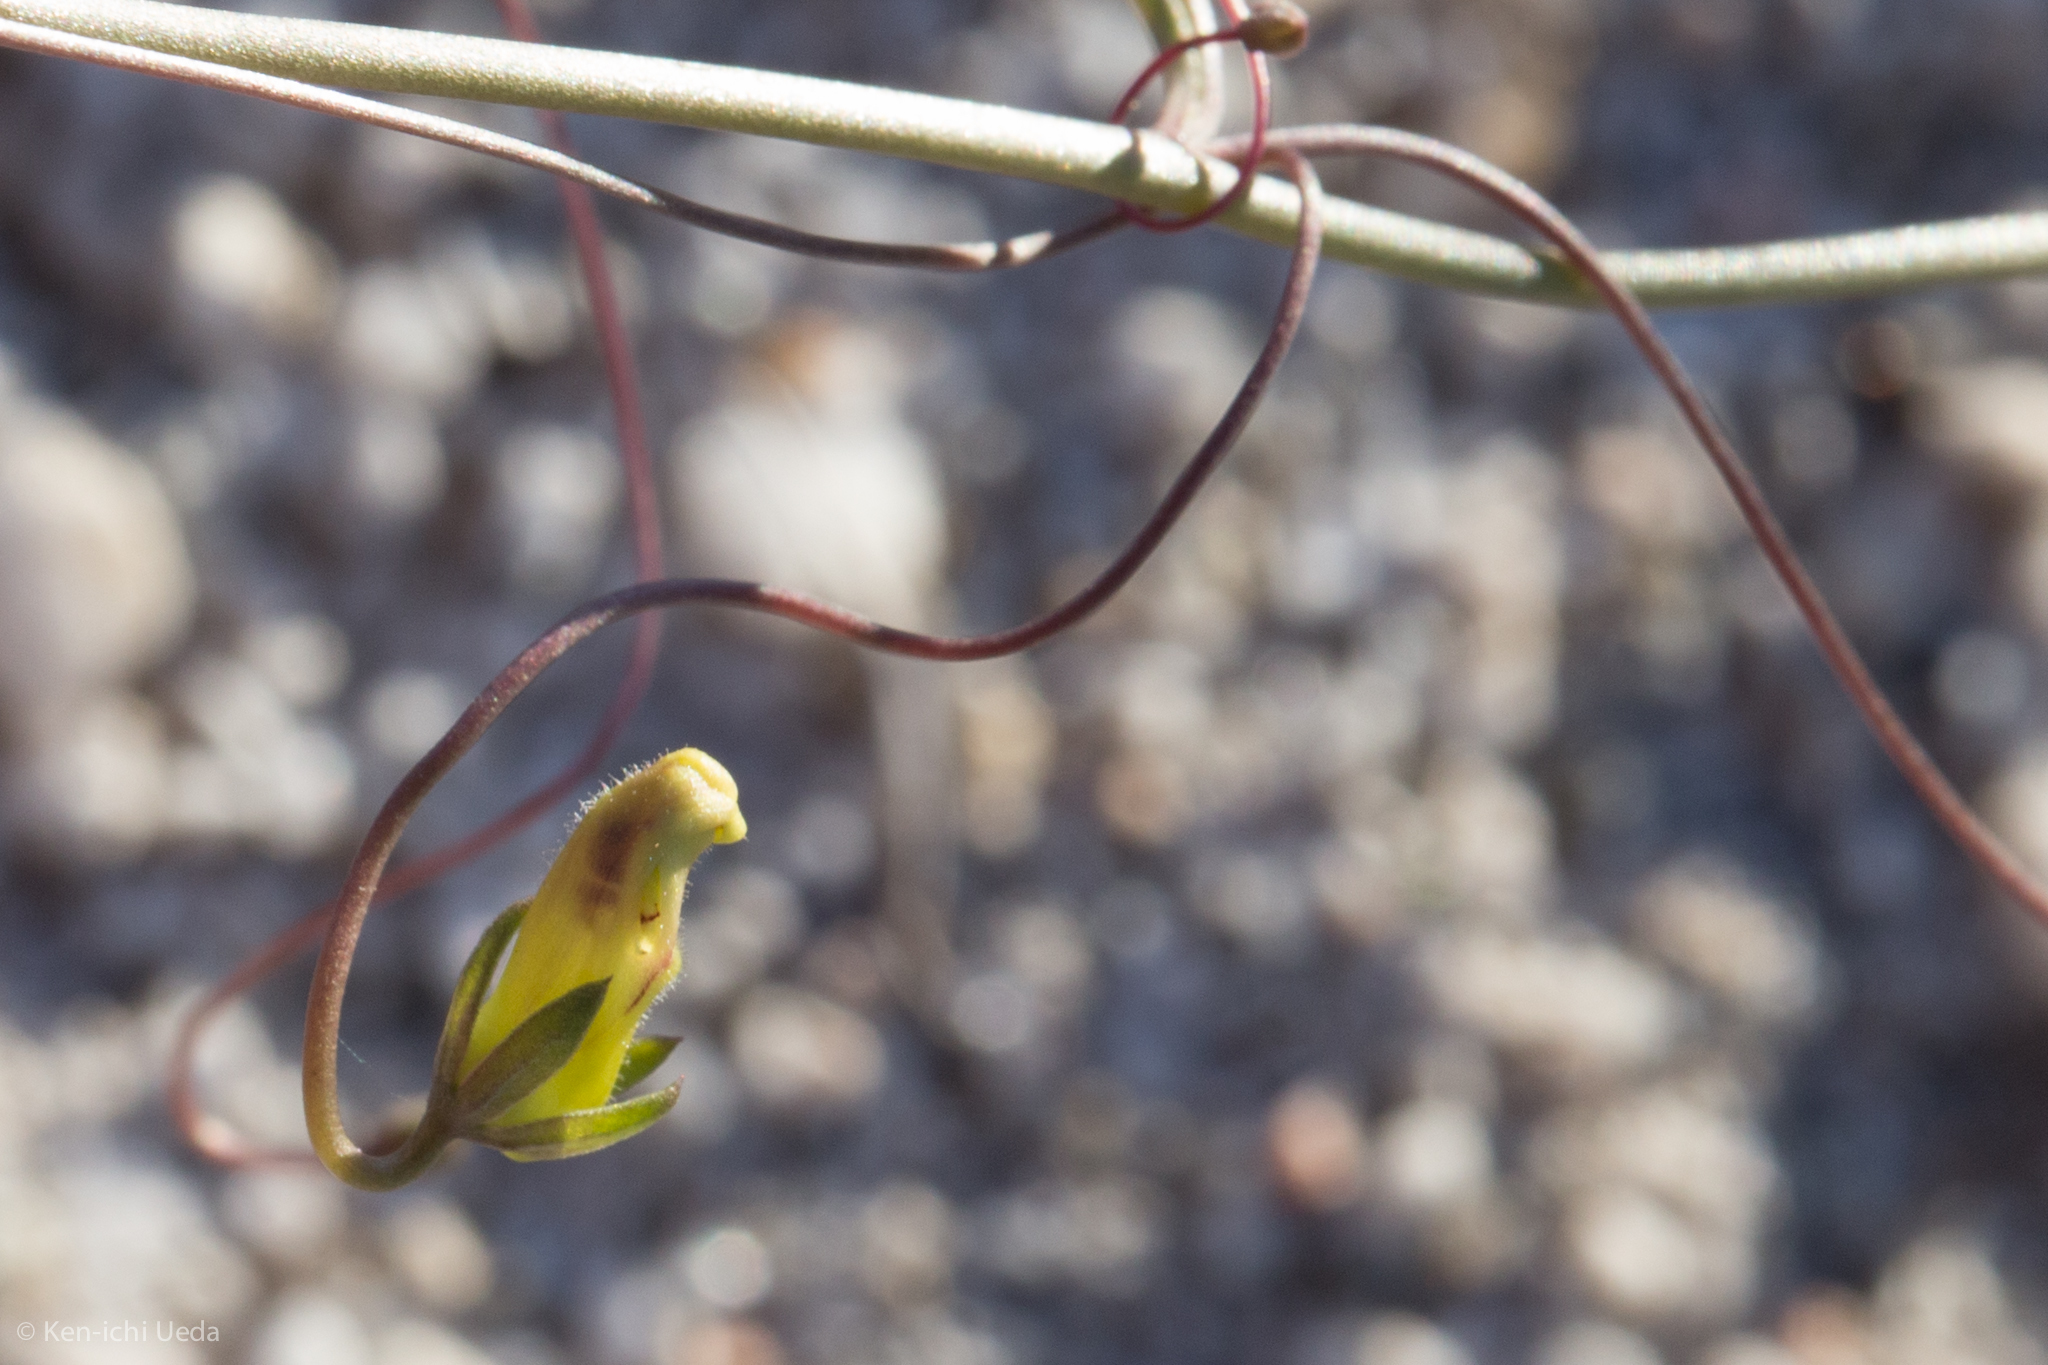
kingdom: Plantae
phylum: Tracheophyta
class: Magnoliopsida
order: Lamiales
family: Plantaginaceae
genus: Neogaerrhinum
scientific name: Neogaerrhinum filipes
